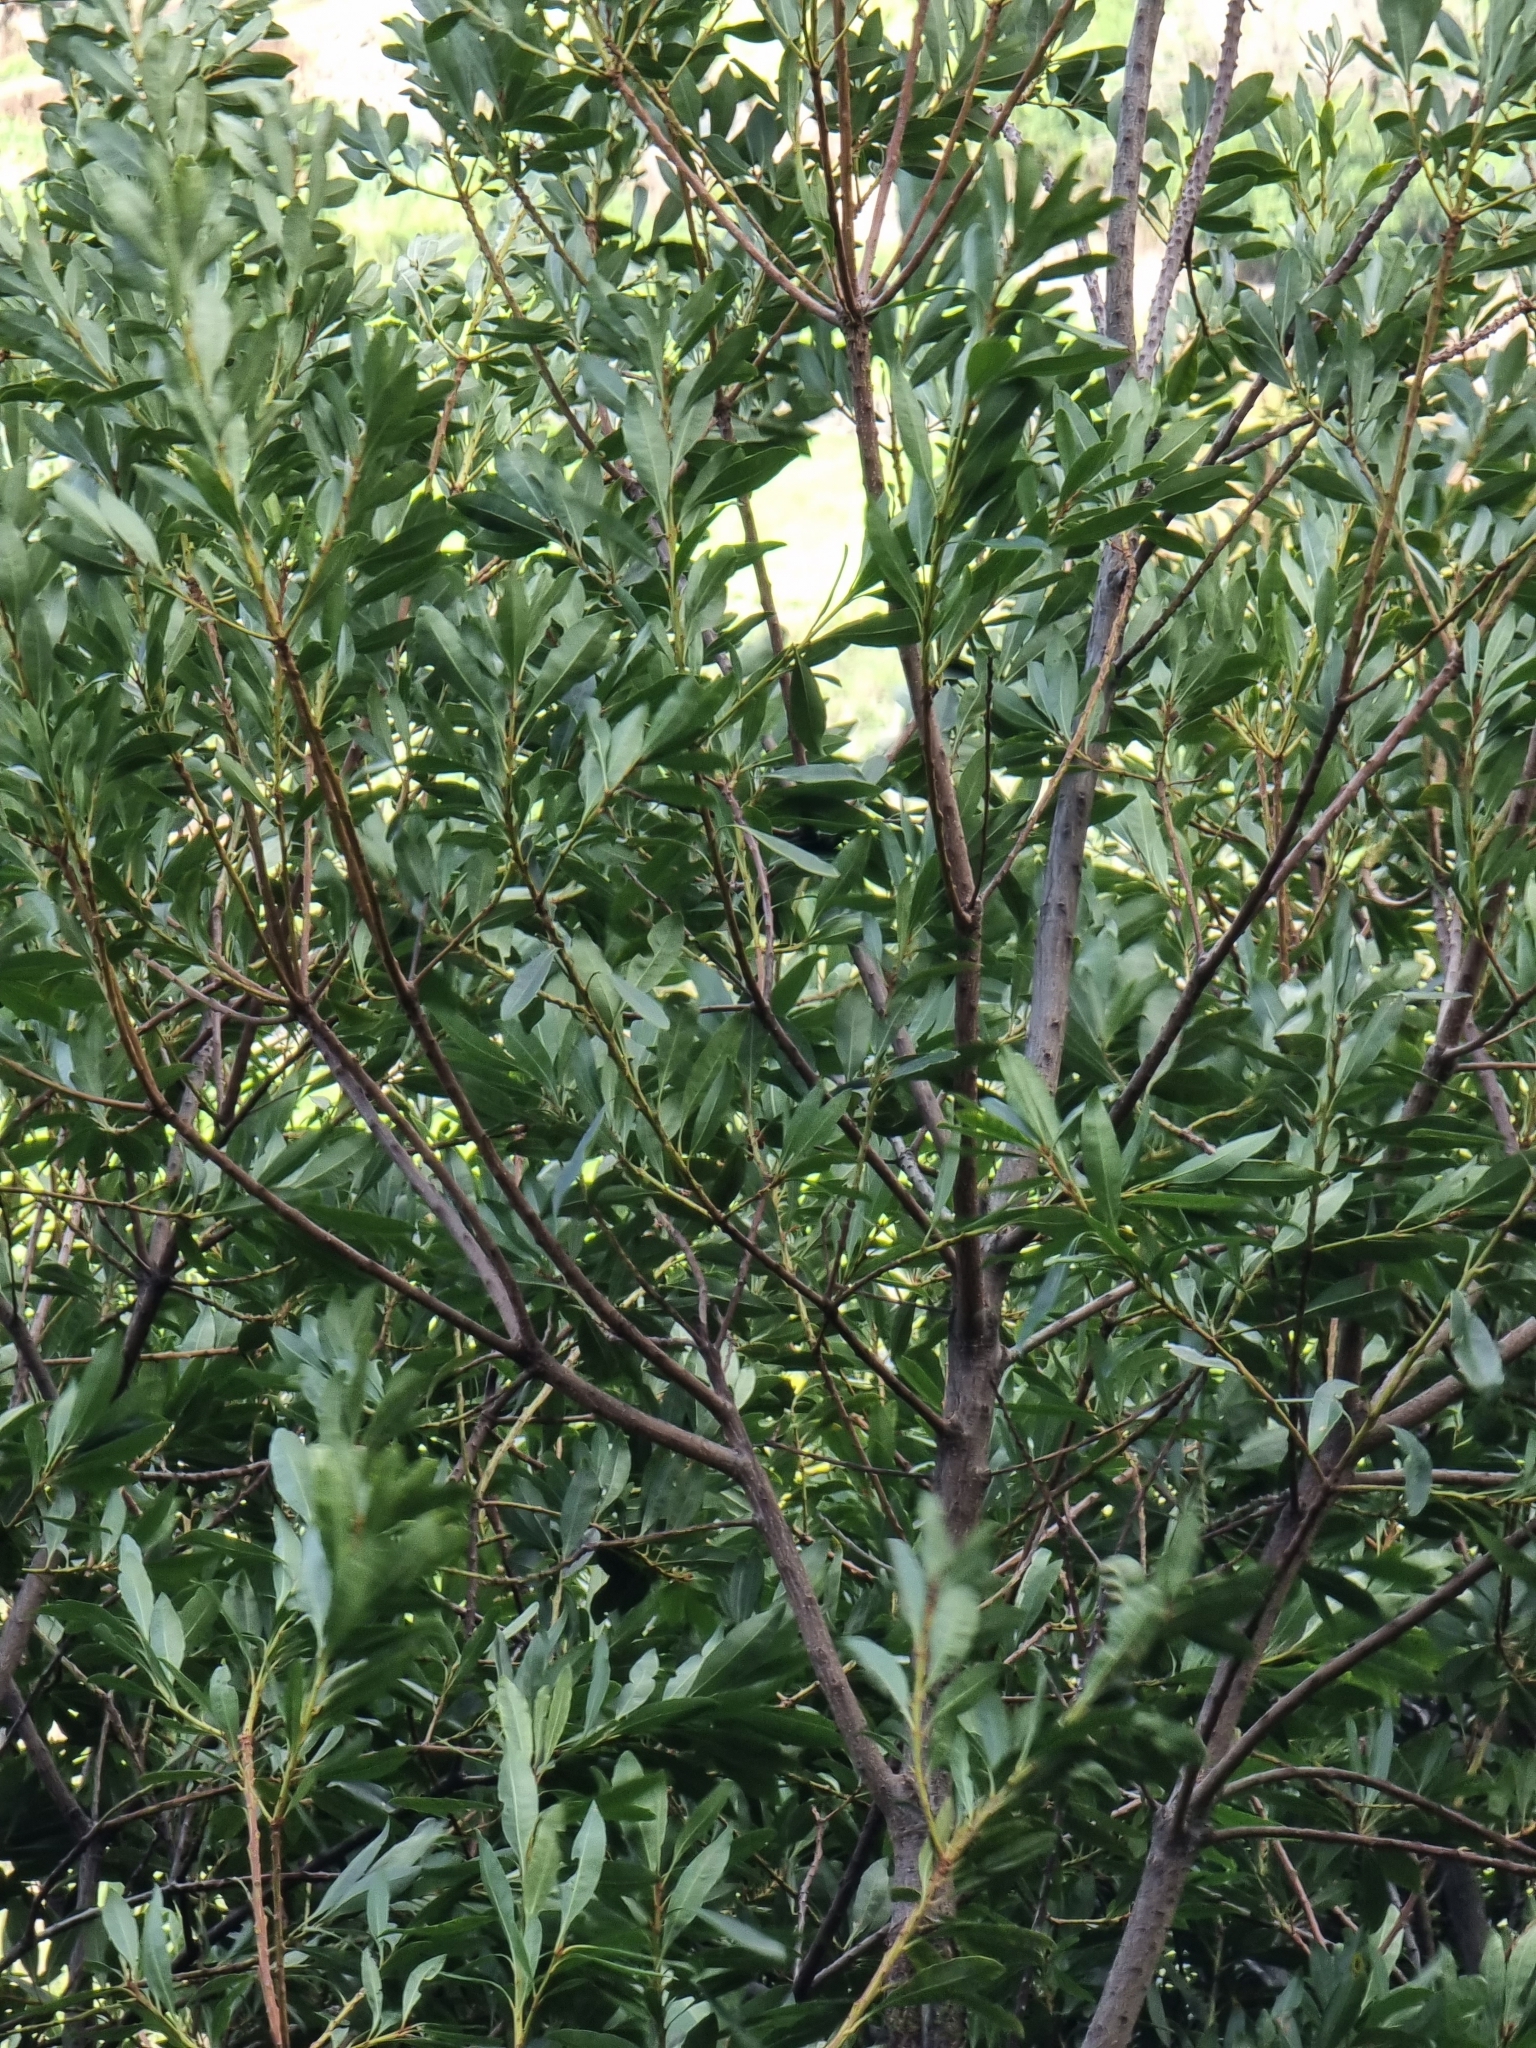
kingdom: Plantae
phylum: Tracheophyta
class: Magnoliopsida
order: Fagales
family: Myricaceae
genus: Morella
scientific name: Morella faya
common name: Firetree
